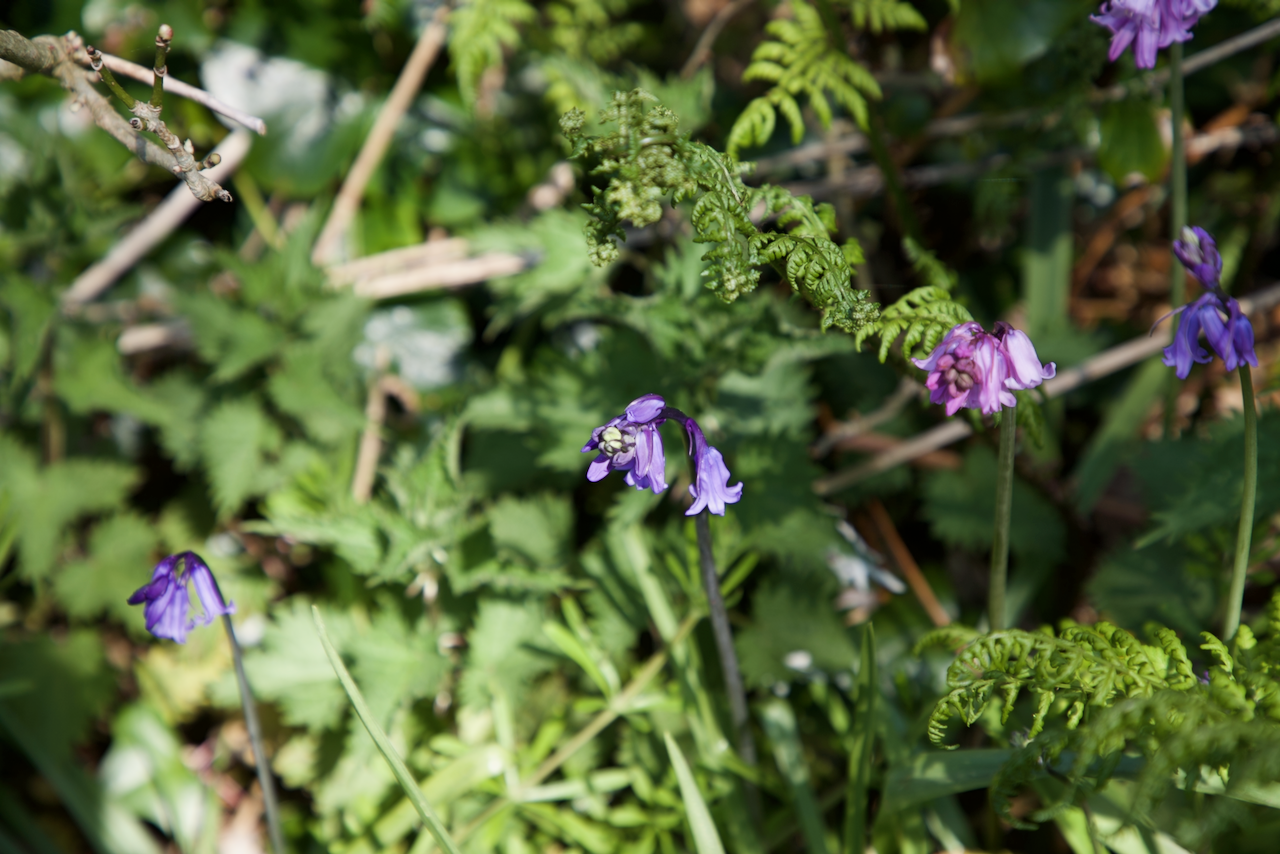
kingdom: Plantae
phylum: Tracheophyta
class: Liliopsida
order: Asparagales
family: Asparagaceae
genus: Hyacinthoides
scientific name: Hyacinthoides non-scripta
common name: Bluebell
